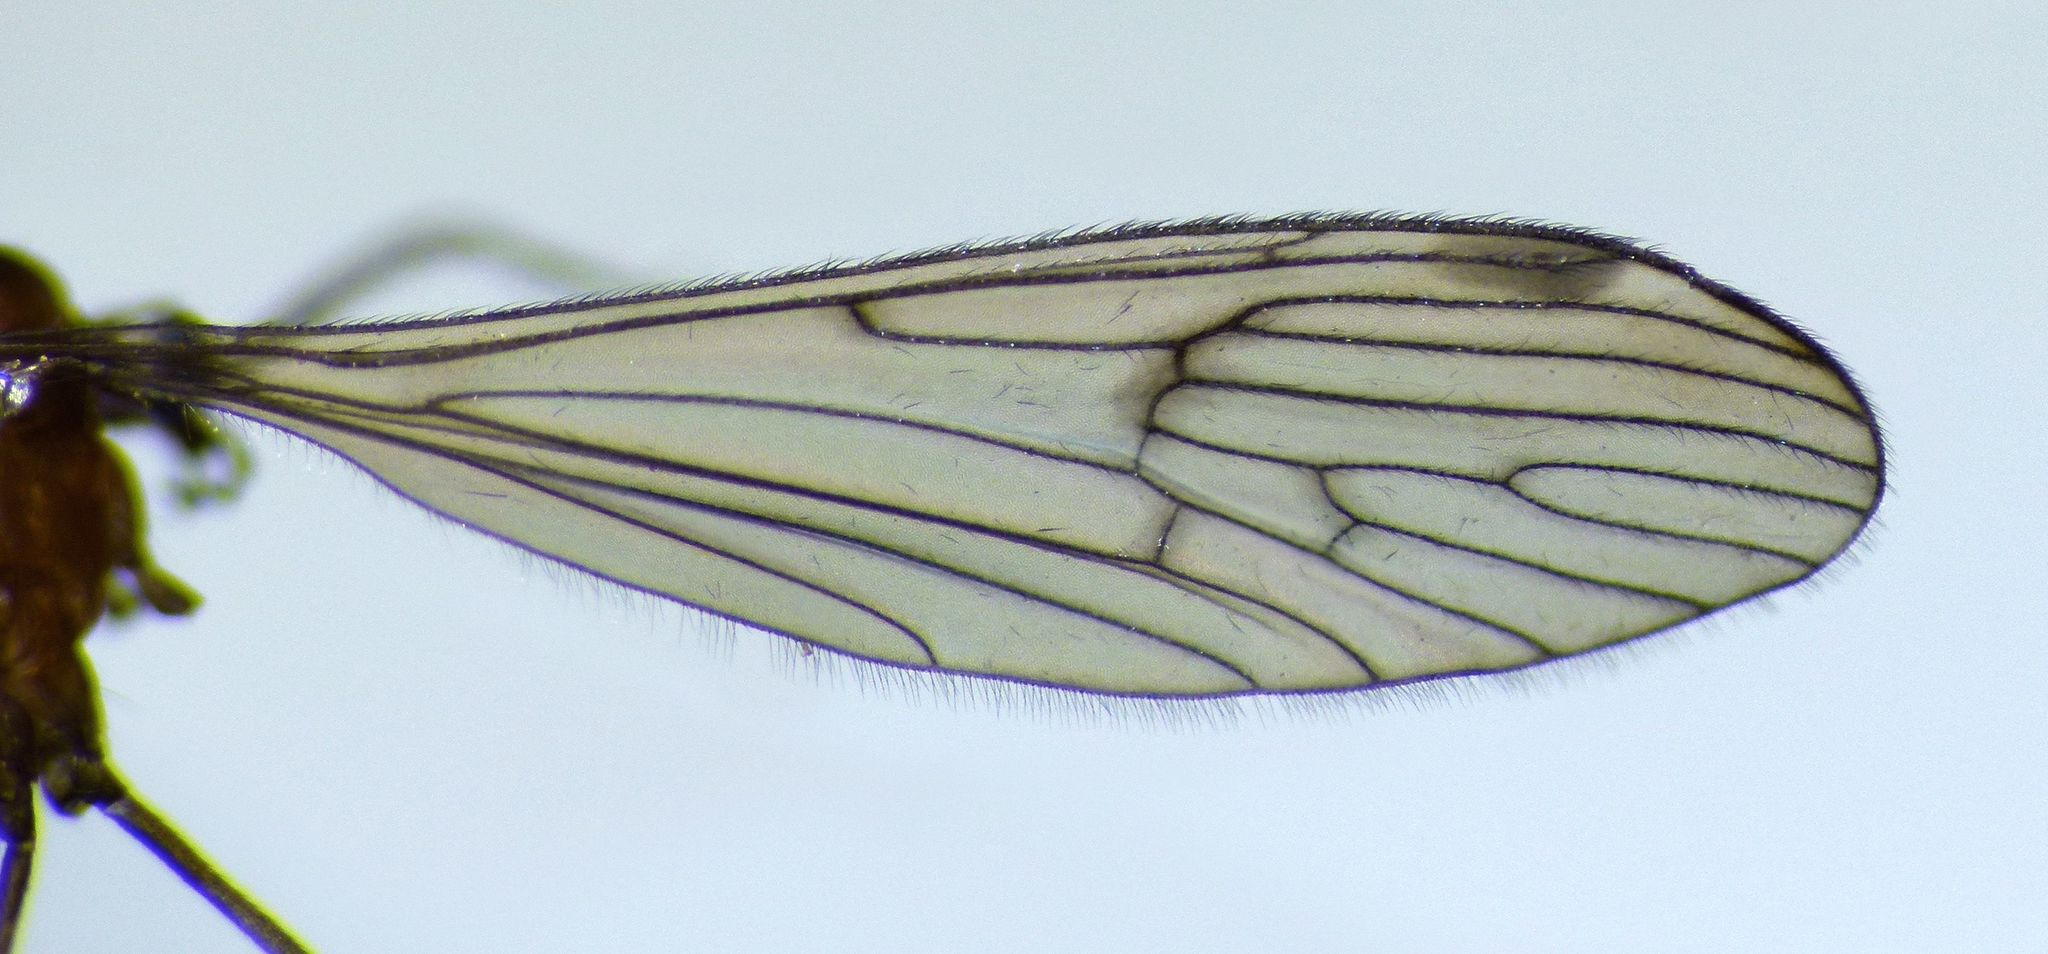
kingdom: Animalia
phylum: Arthropoda
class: Insecta
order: Diptera
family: Limoniidae
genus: Acantholimnophila
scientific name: Acantholimnophila bispina
